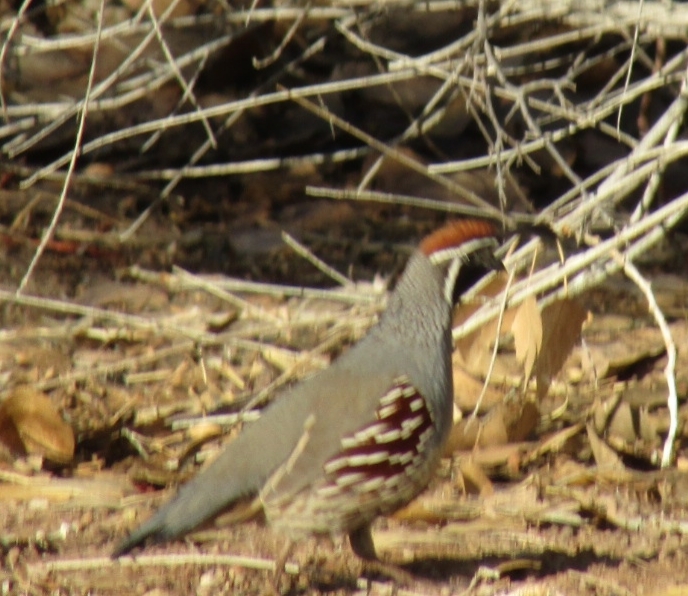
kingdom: Animalia
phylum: Chordata
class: Aves
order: Galliformes
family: Odontophoridae
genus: Callipepla
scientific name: Callipepla gambelii
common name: Gambel's quail
